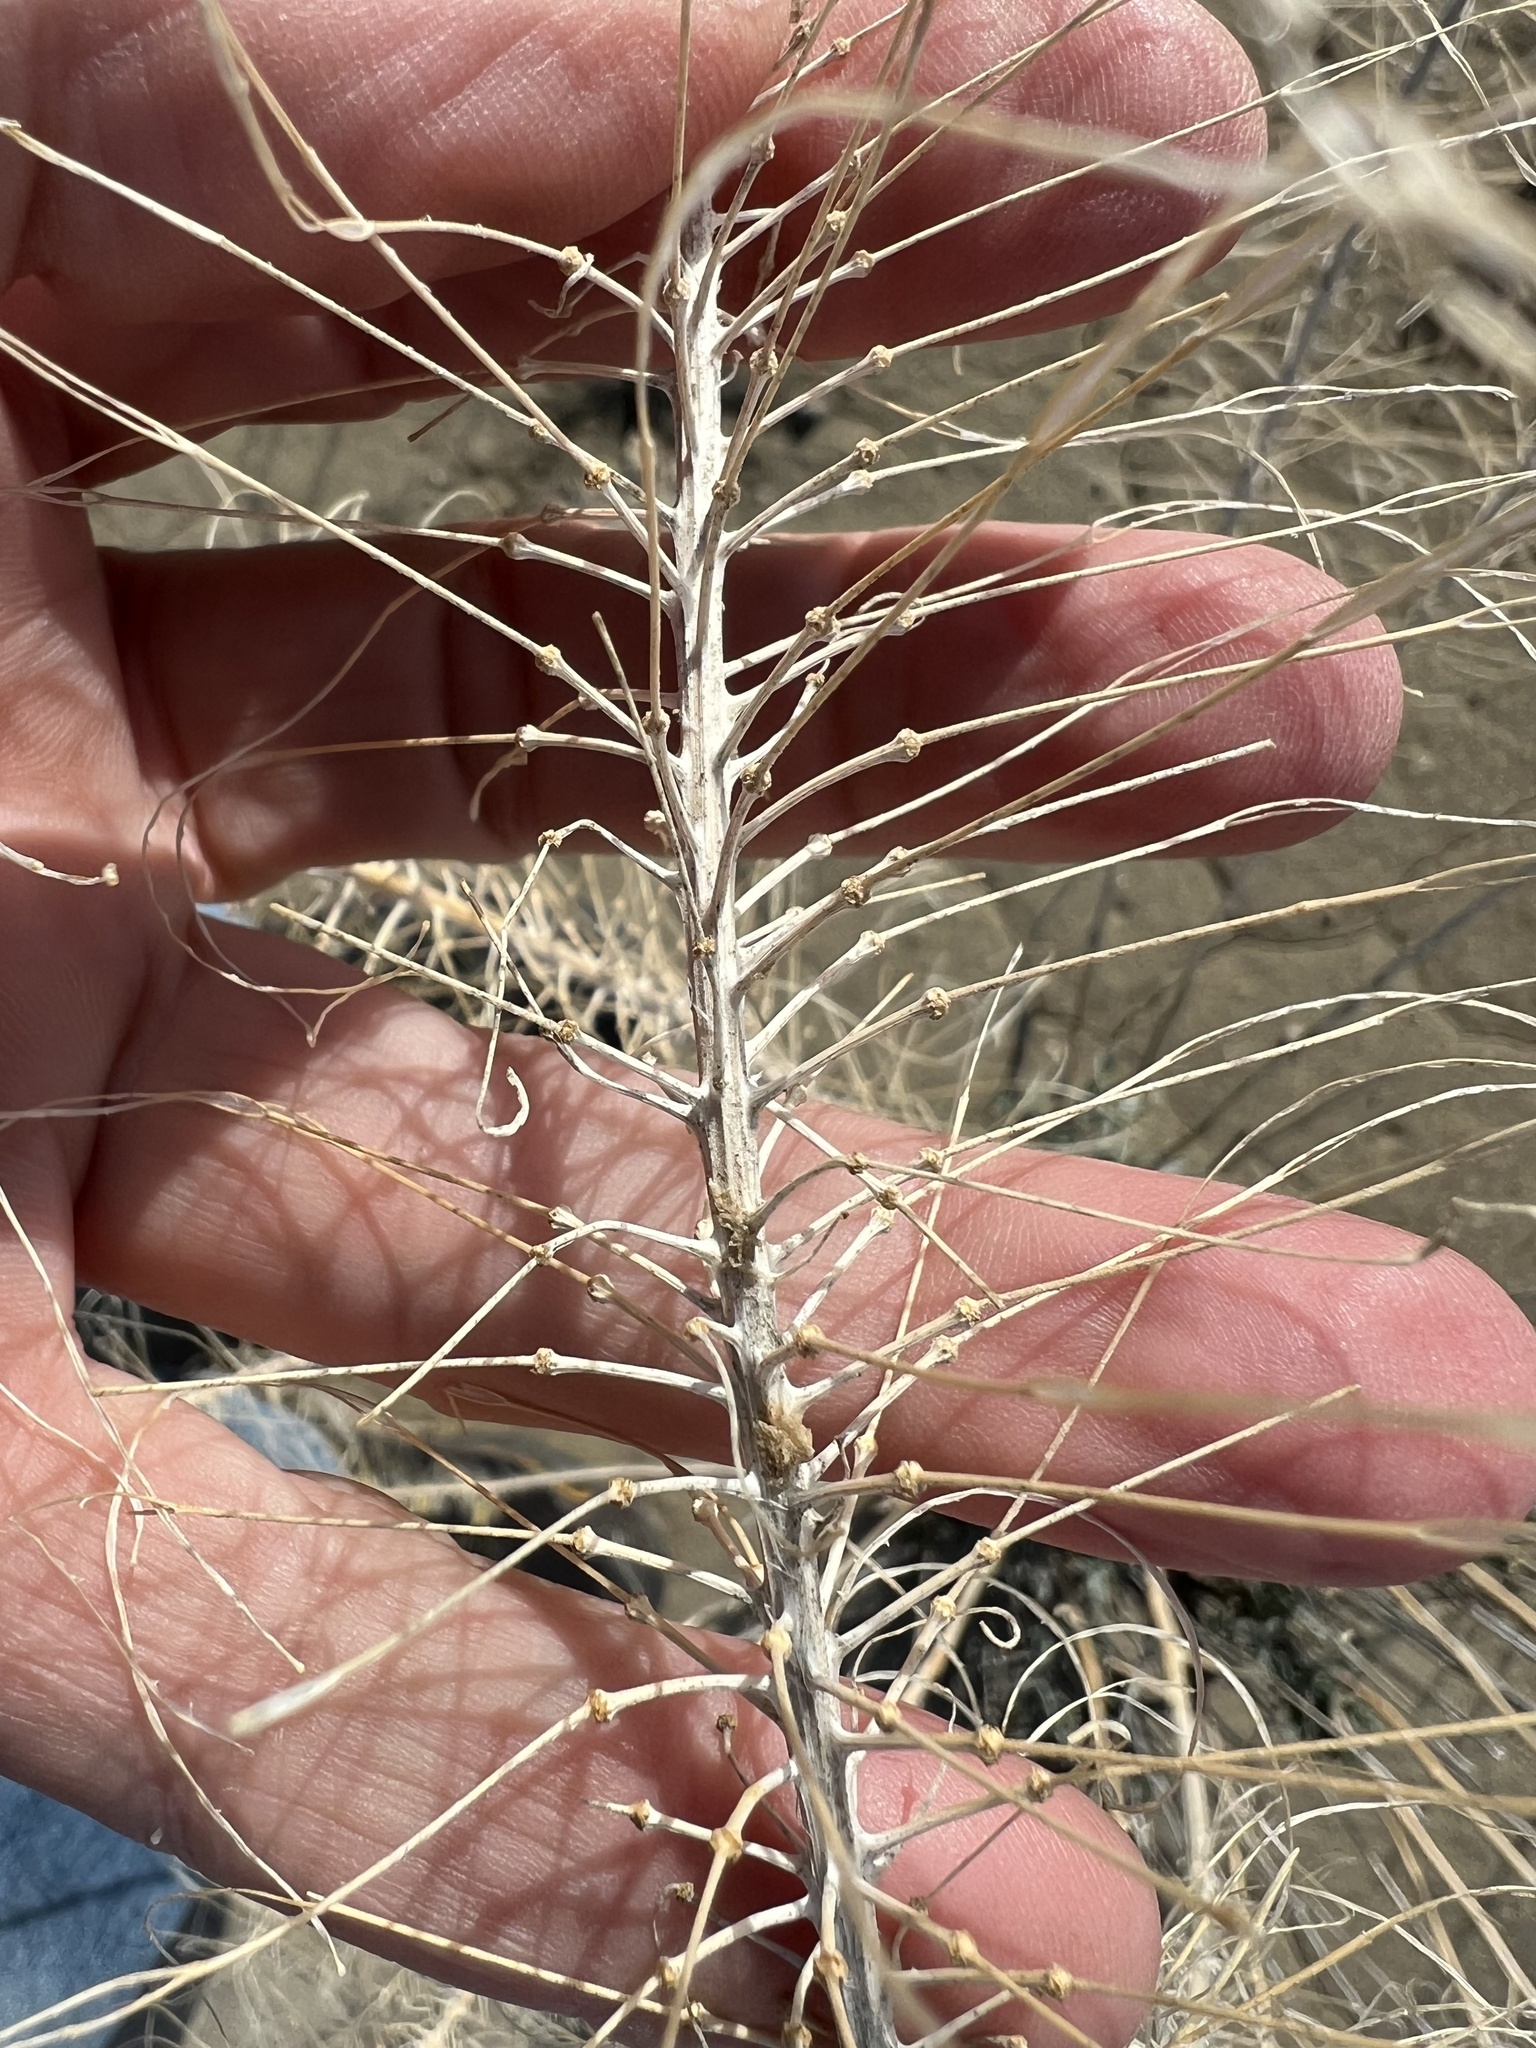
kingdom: Plantae
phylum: Tracheophyta
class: Magnoliopsida
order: Brassicales
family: Brassicaceae
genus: Stanleya
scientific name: Stanleya pinnata
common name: Prince's-plume
